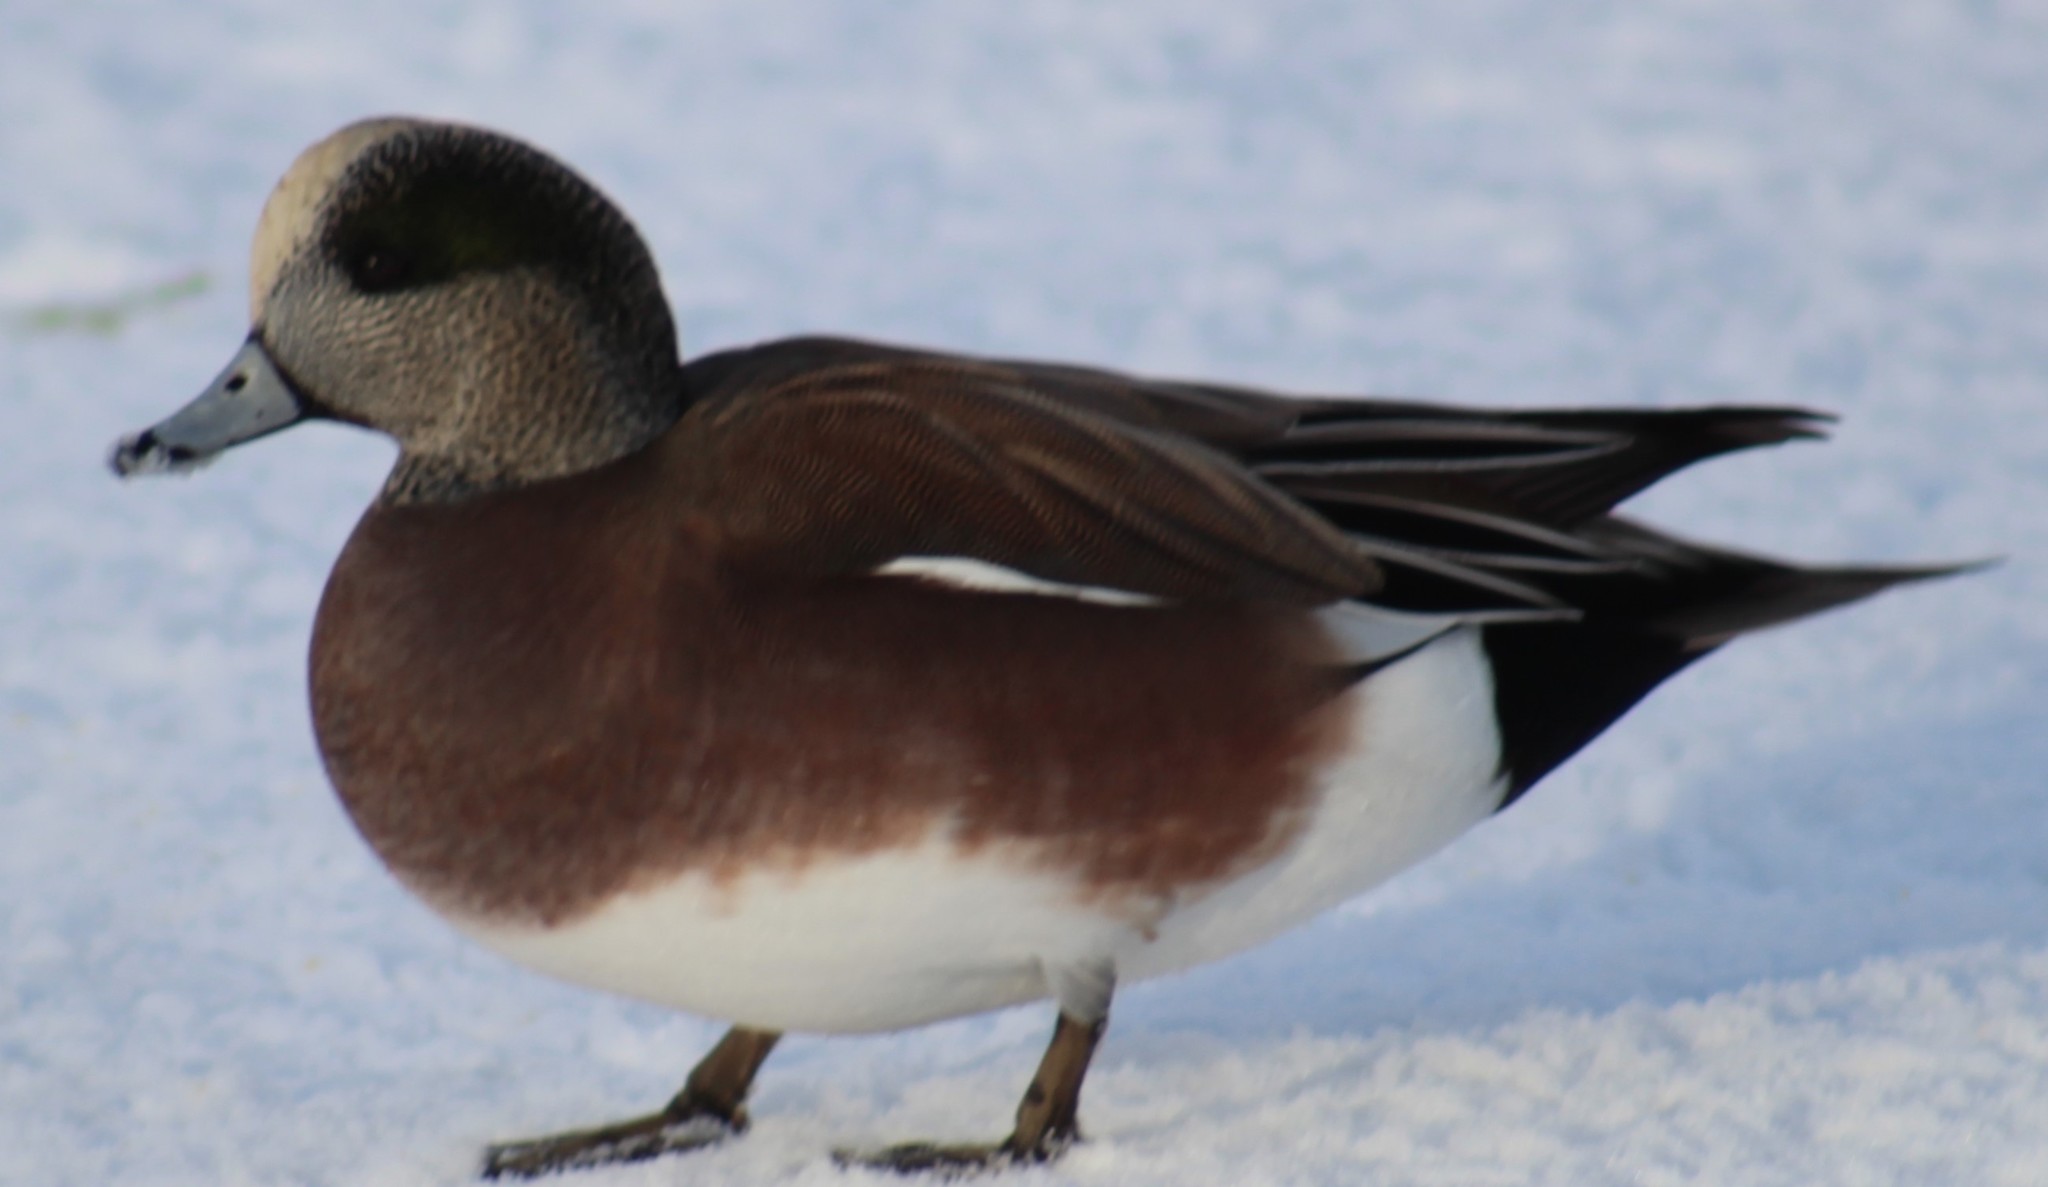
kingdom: Animalia
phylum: Chordata
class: Aves
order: Anseriformes
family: Anatidae
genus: Mareca
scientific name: Mareca americana
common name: American wigeon
